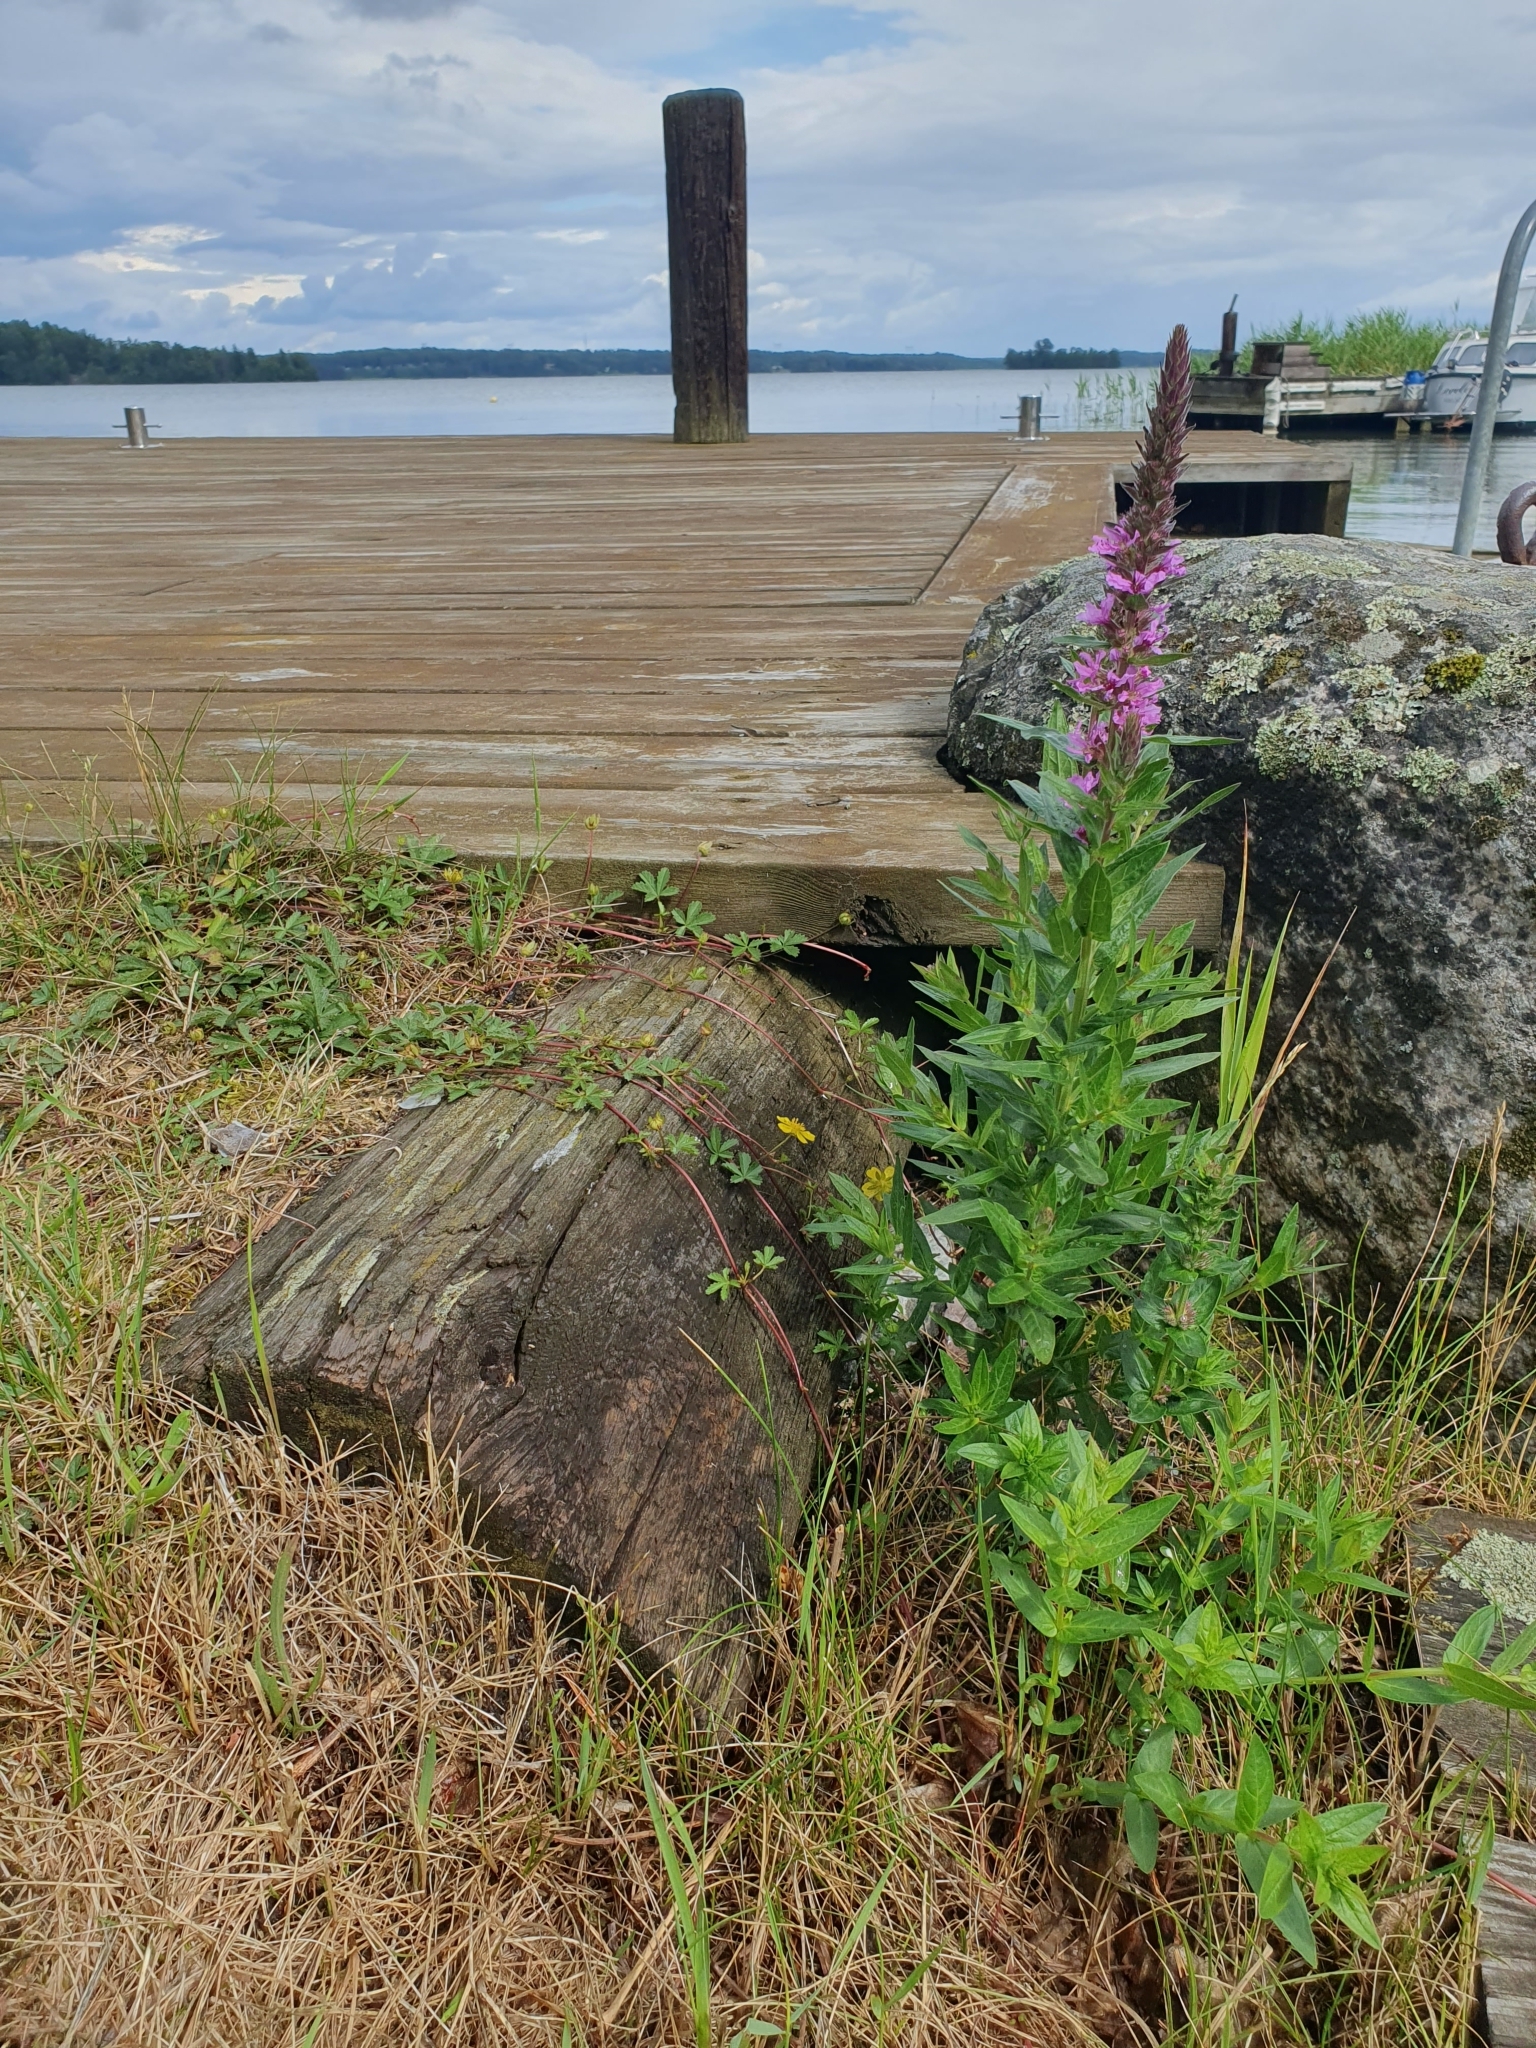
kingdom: Plantae
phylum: Tracheophyta
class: Magnoliopsida
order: Myrtales
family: Lythraceae
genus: Lythrum
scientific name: Lythrum salicaria
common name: Purple loosestrife
